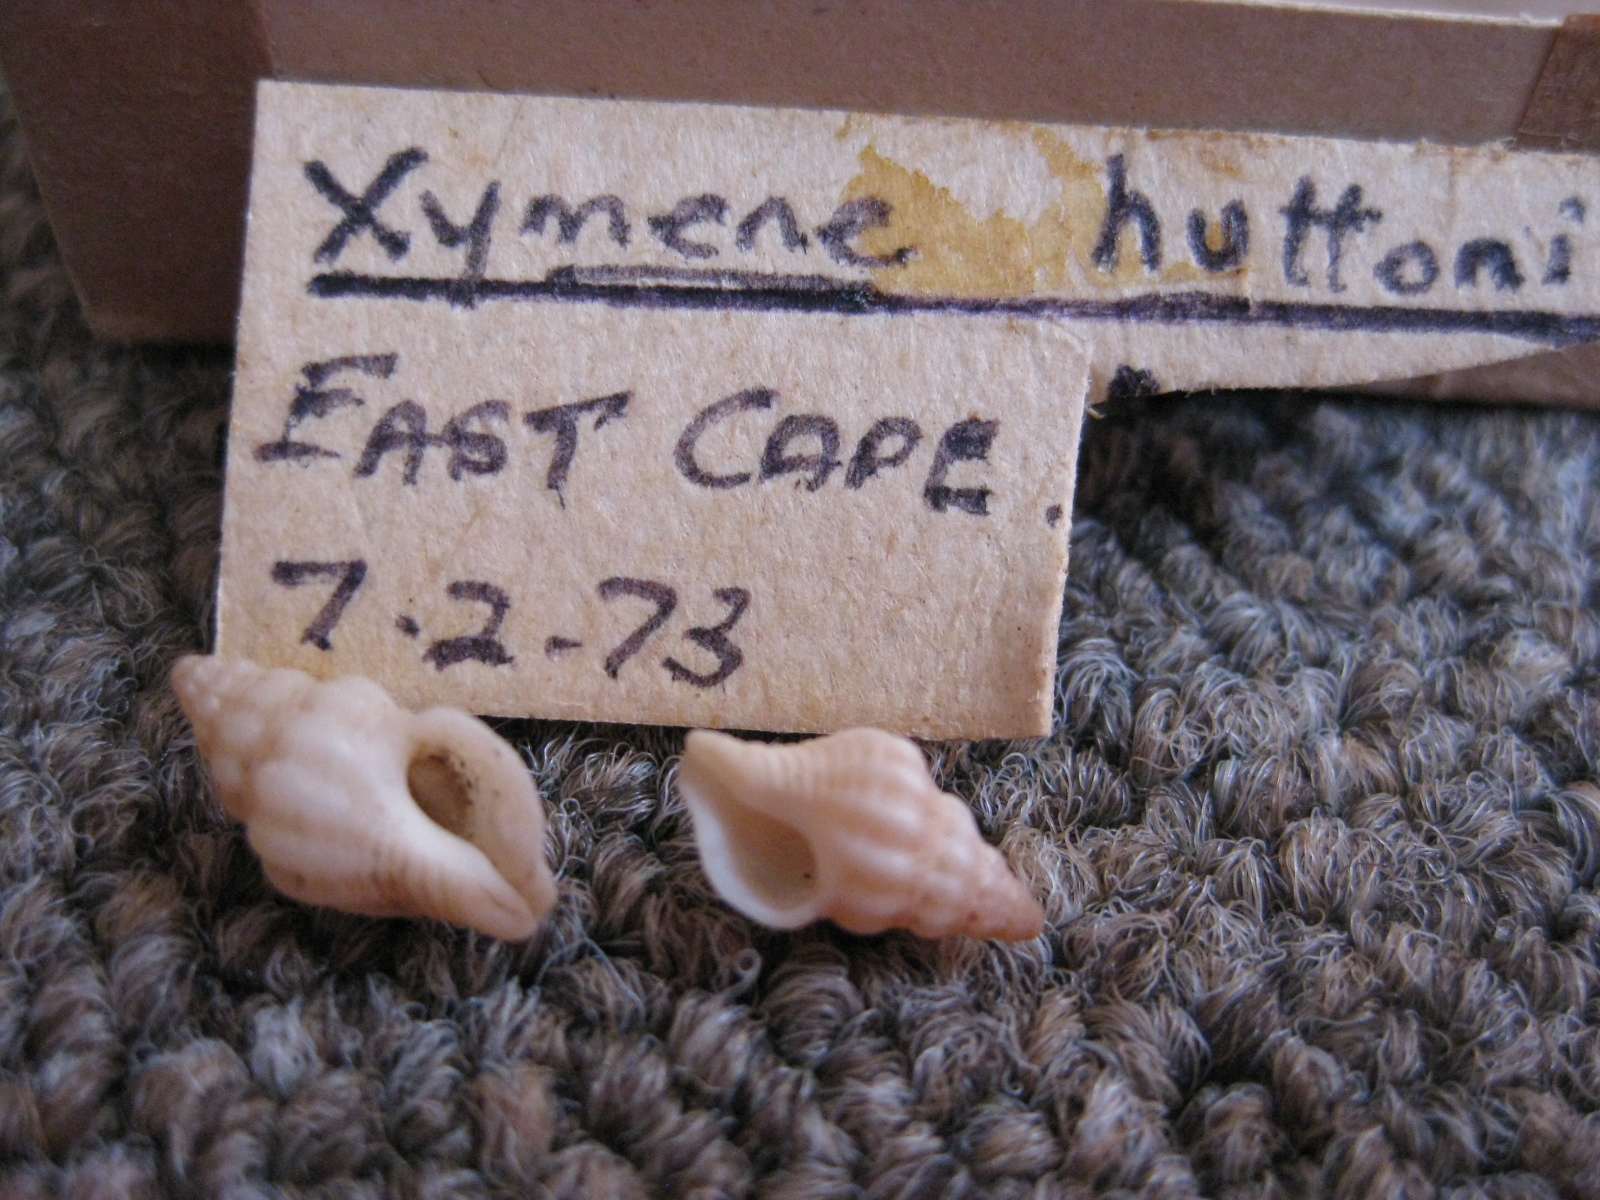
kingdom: Animalia
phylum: Mollusca
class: Gastropoda
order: Neogastropoda
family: Muricidae
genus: Lamellitrophon
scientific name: Lamellitrophon huttonii
